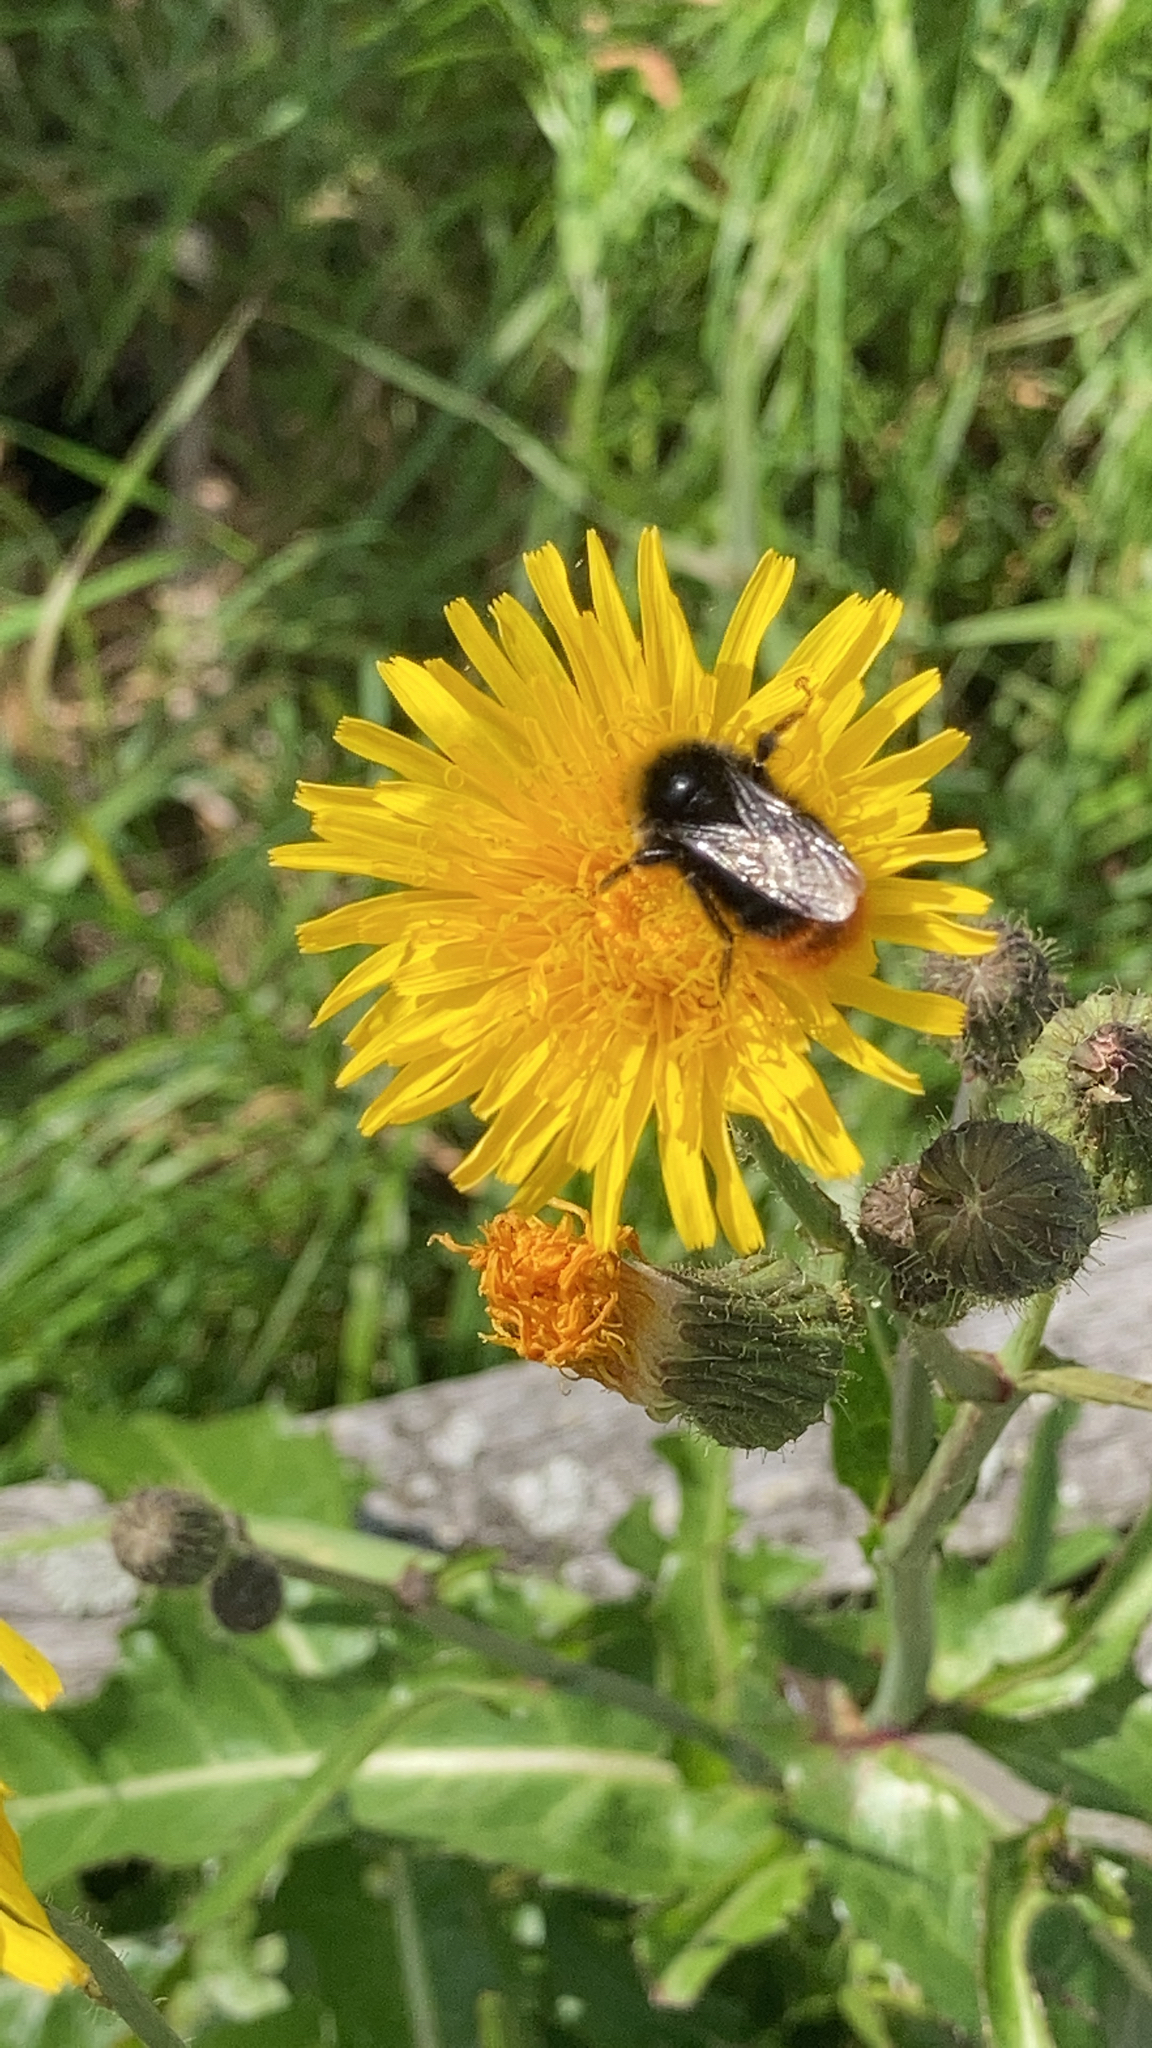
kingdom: Animalia
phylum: Arthropoda
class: Insecta
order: Hymenoptera
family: Apidae
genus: Bombus
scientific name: Bombus lapidarius
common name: Large red-tailed humble-bee
